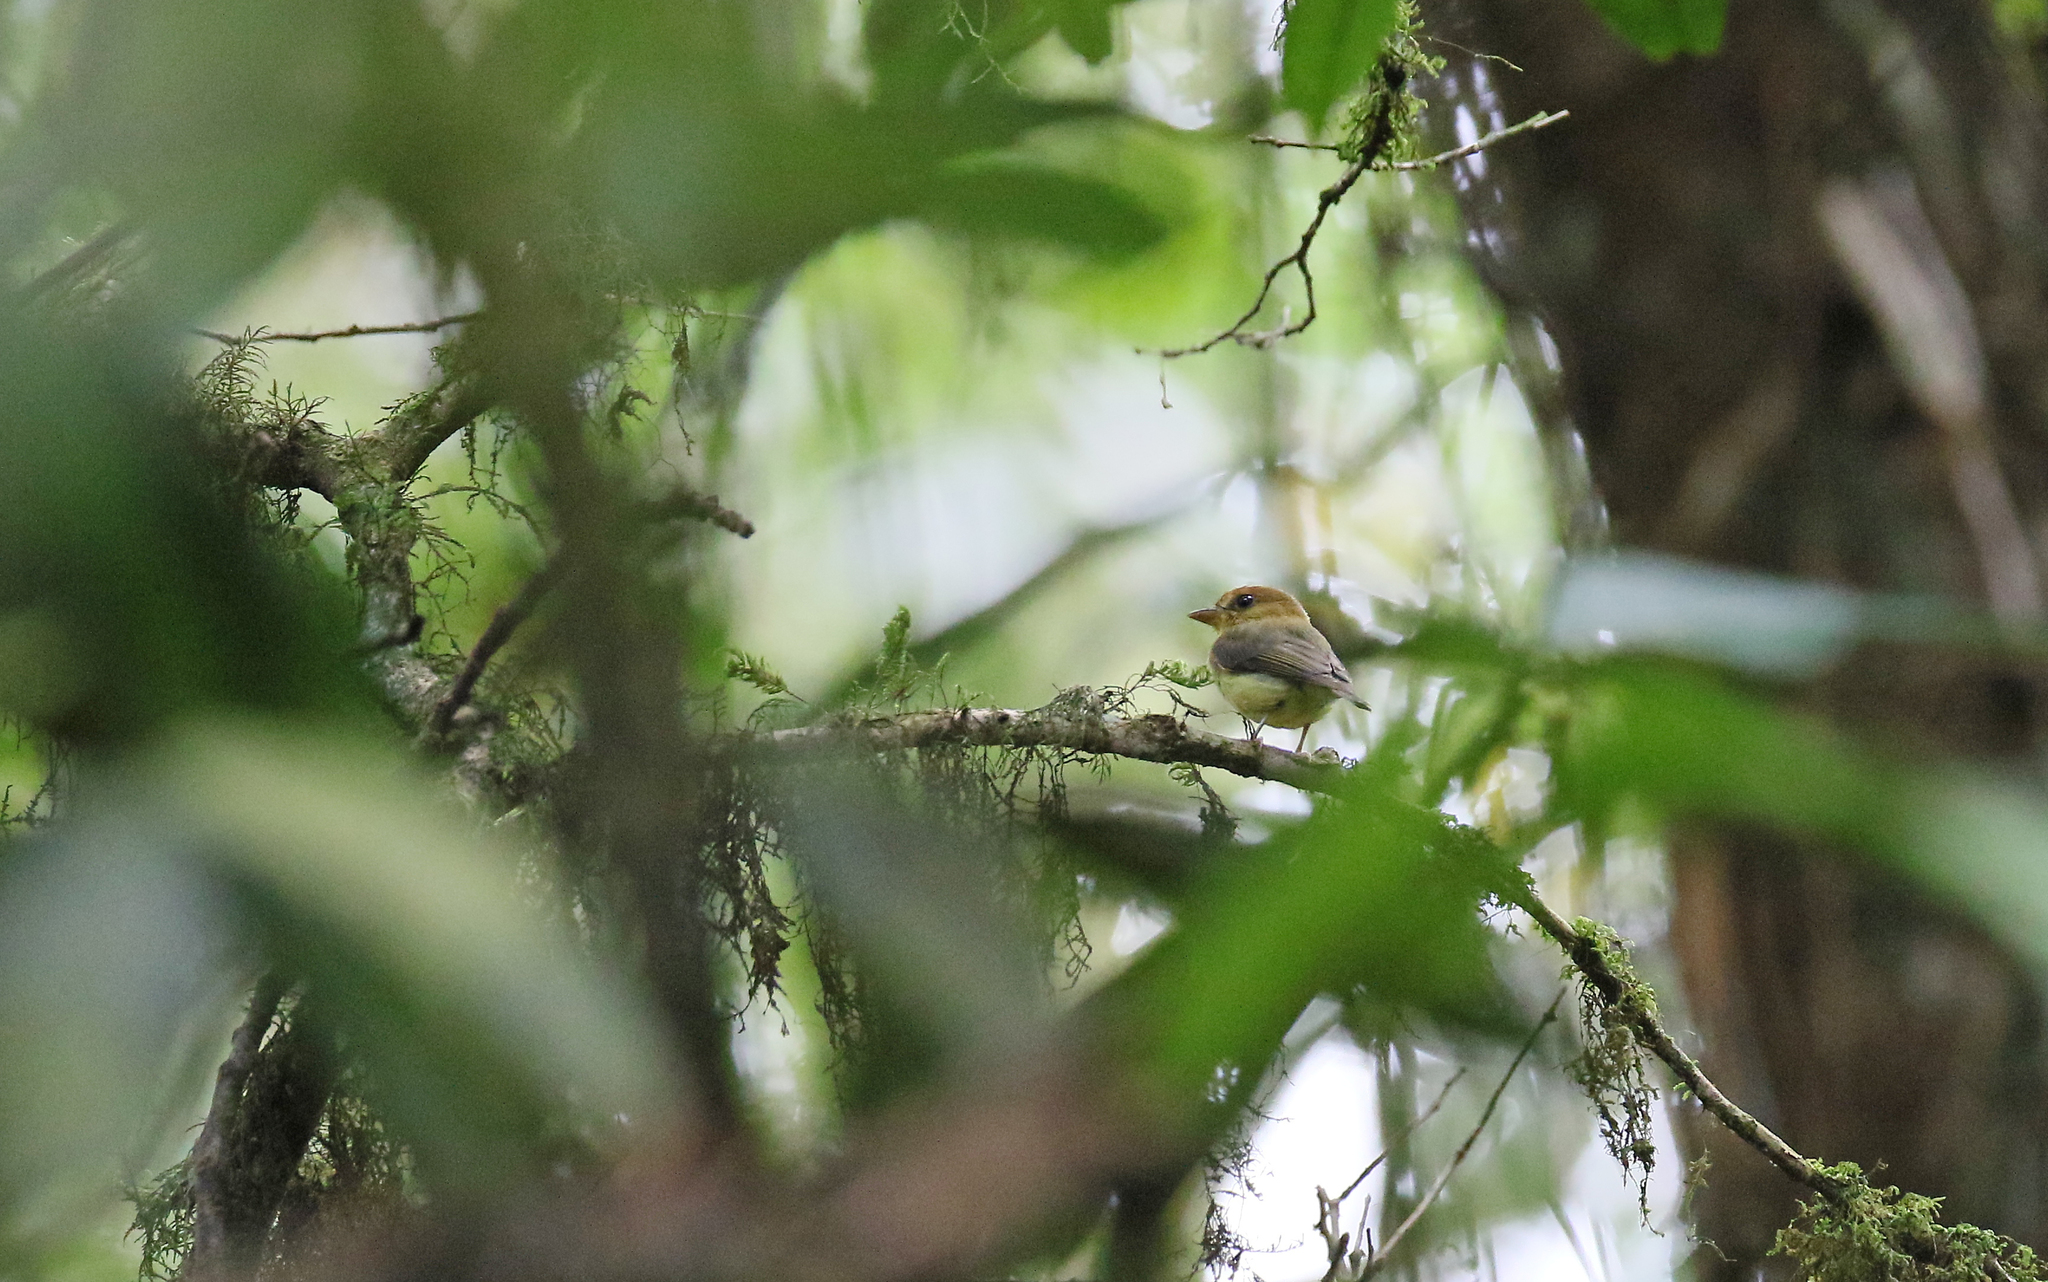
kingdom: Animalia
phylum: Chordata
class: Aves
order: Passeriformes
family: Tyrannidae
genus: Platyrinchus
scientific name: Platyrinchus flavigularis
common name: Yellow-throated spadebill
